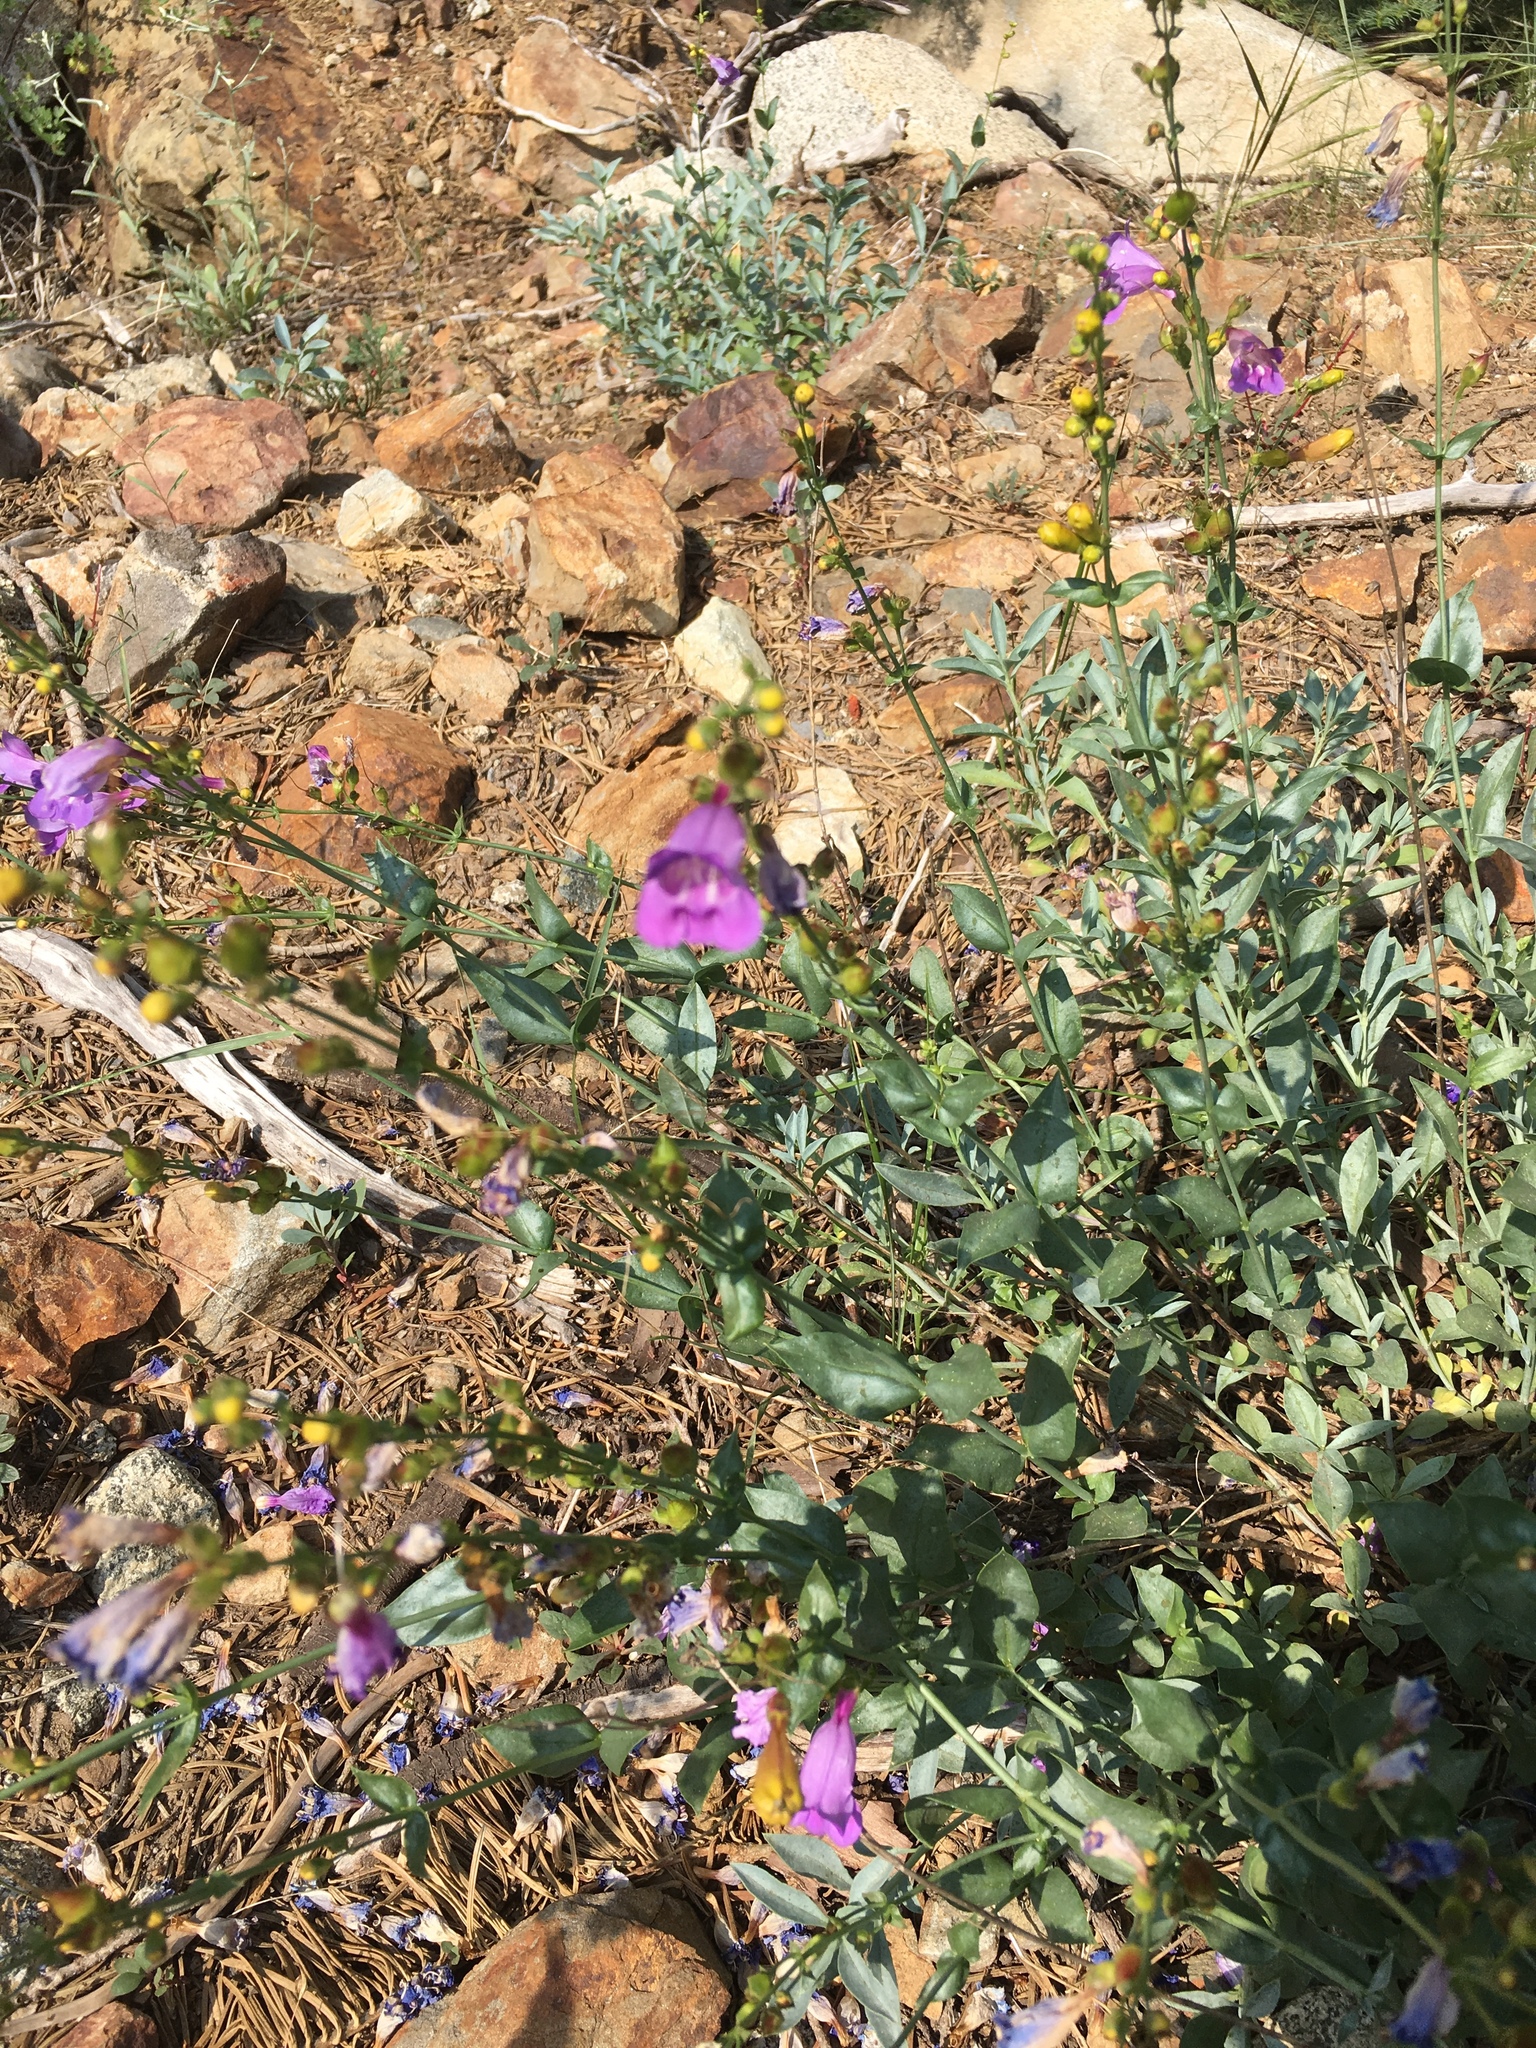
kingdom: Plantae
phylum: Tracheophyta
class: Magnoliopsida
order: Lamiales
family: Plantaginaceae
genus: Penstemon
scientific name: Penstemon azureus
